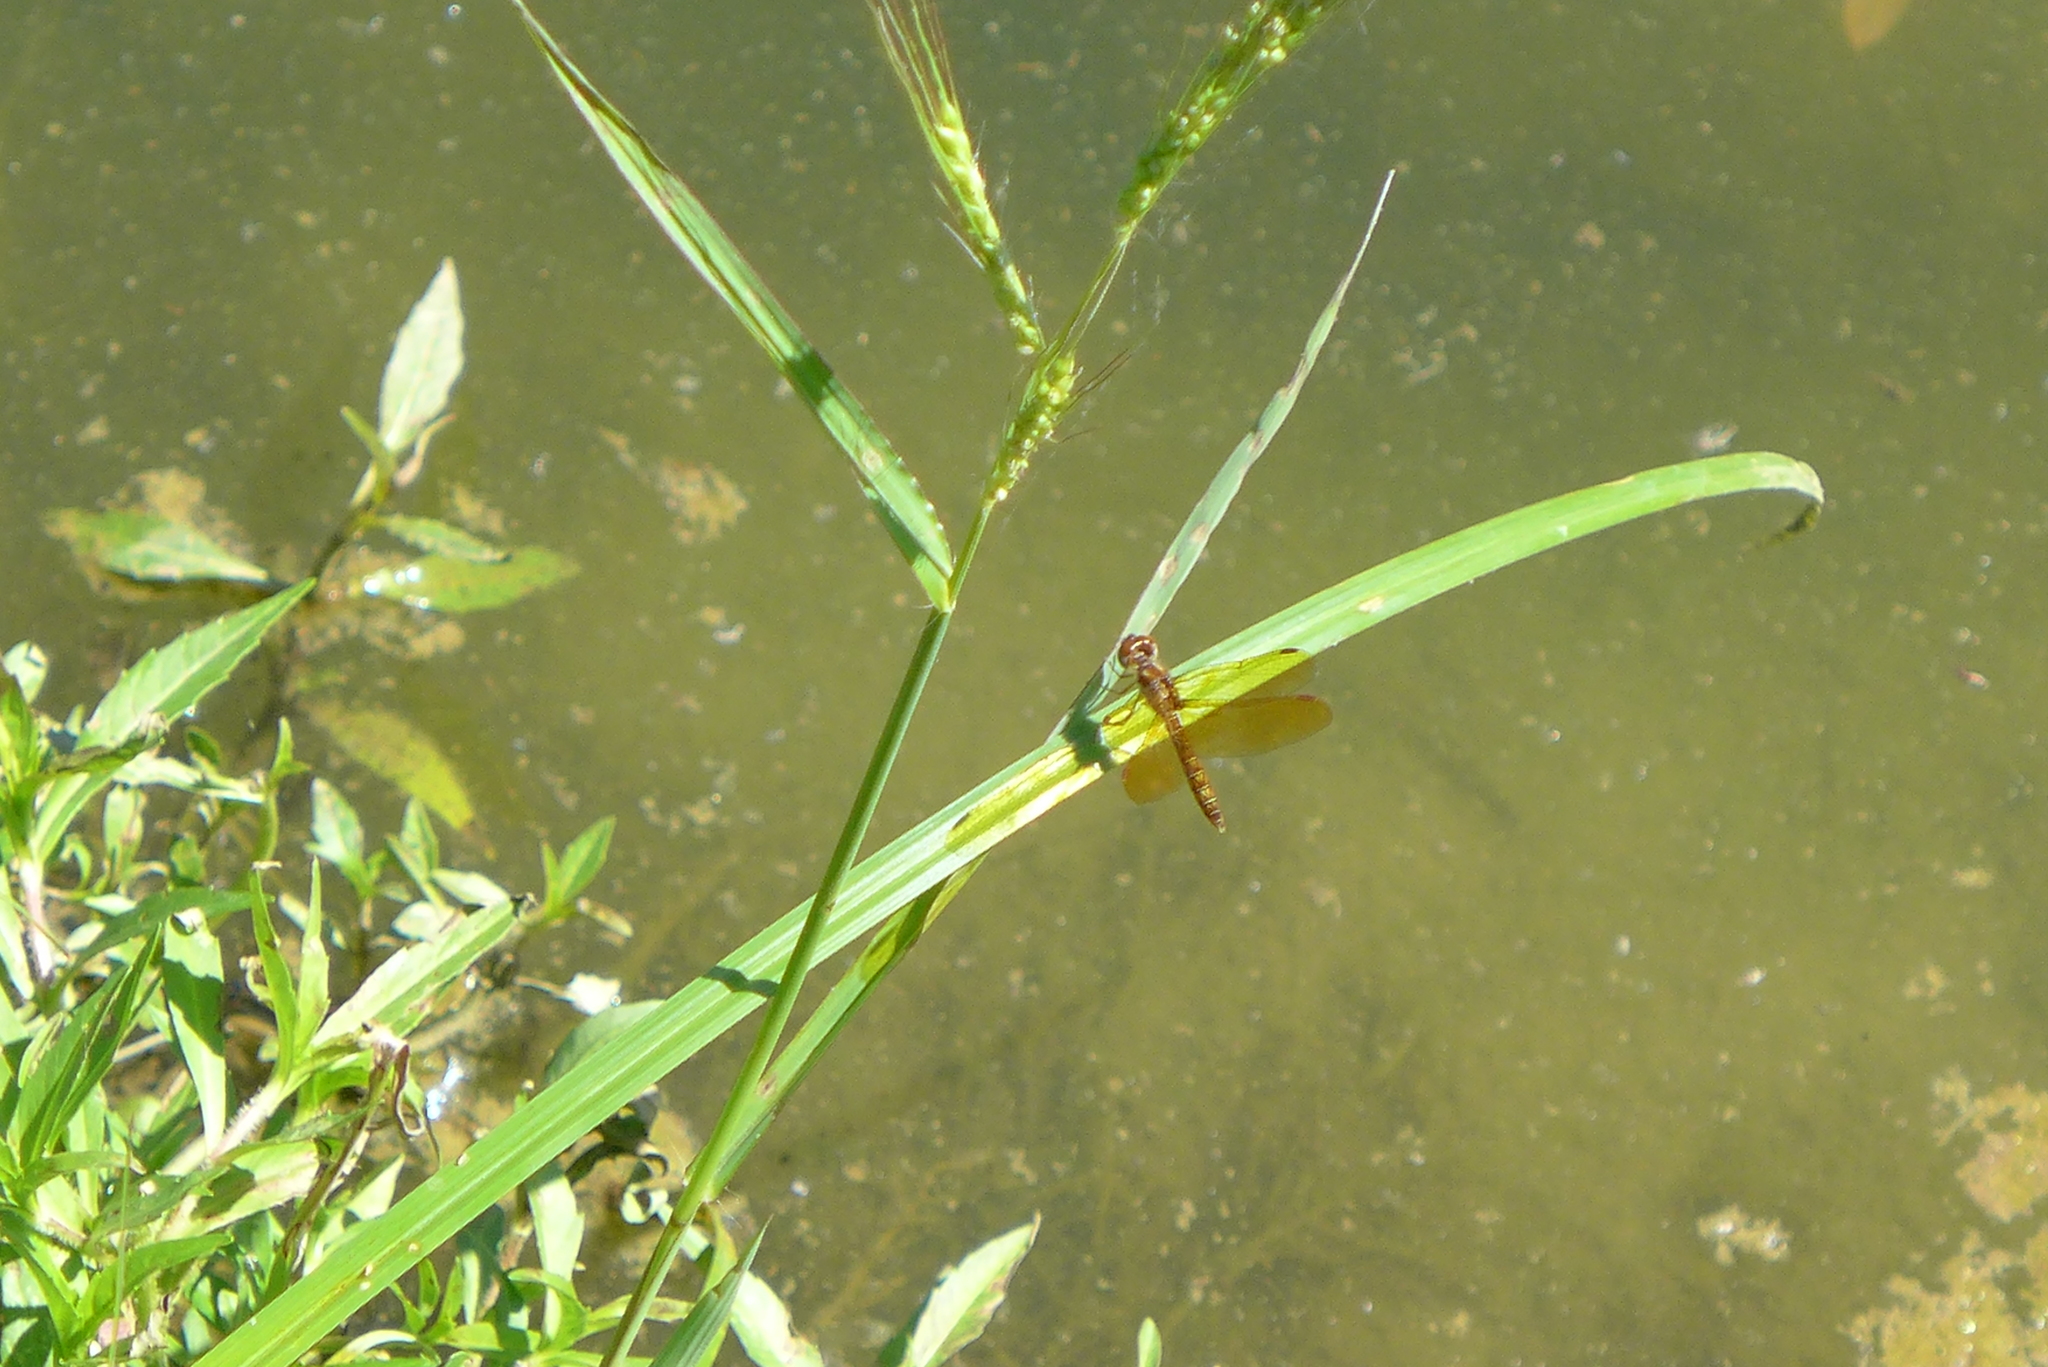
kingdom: Animalia
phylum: Arthropoda
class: Insecta
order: Odonata
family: Libellulidae
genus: Perithemis
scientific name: Perithemis tenera
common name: Eastern amberwing
